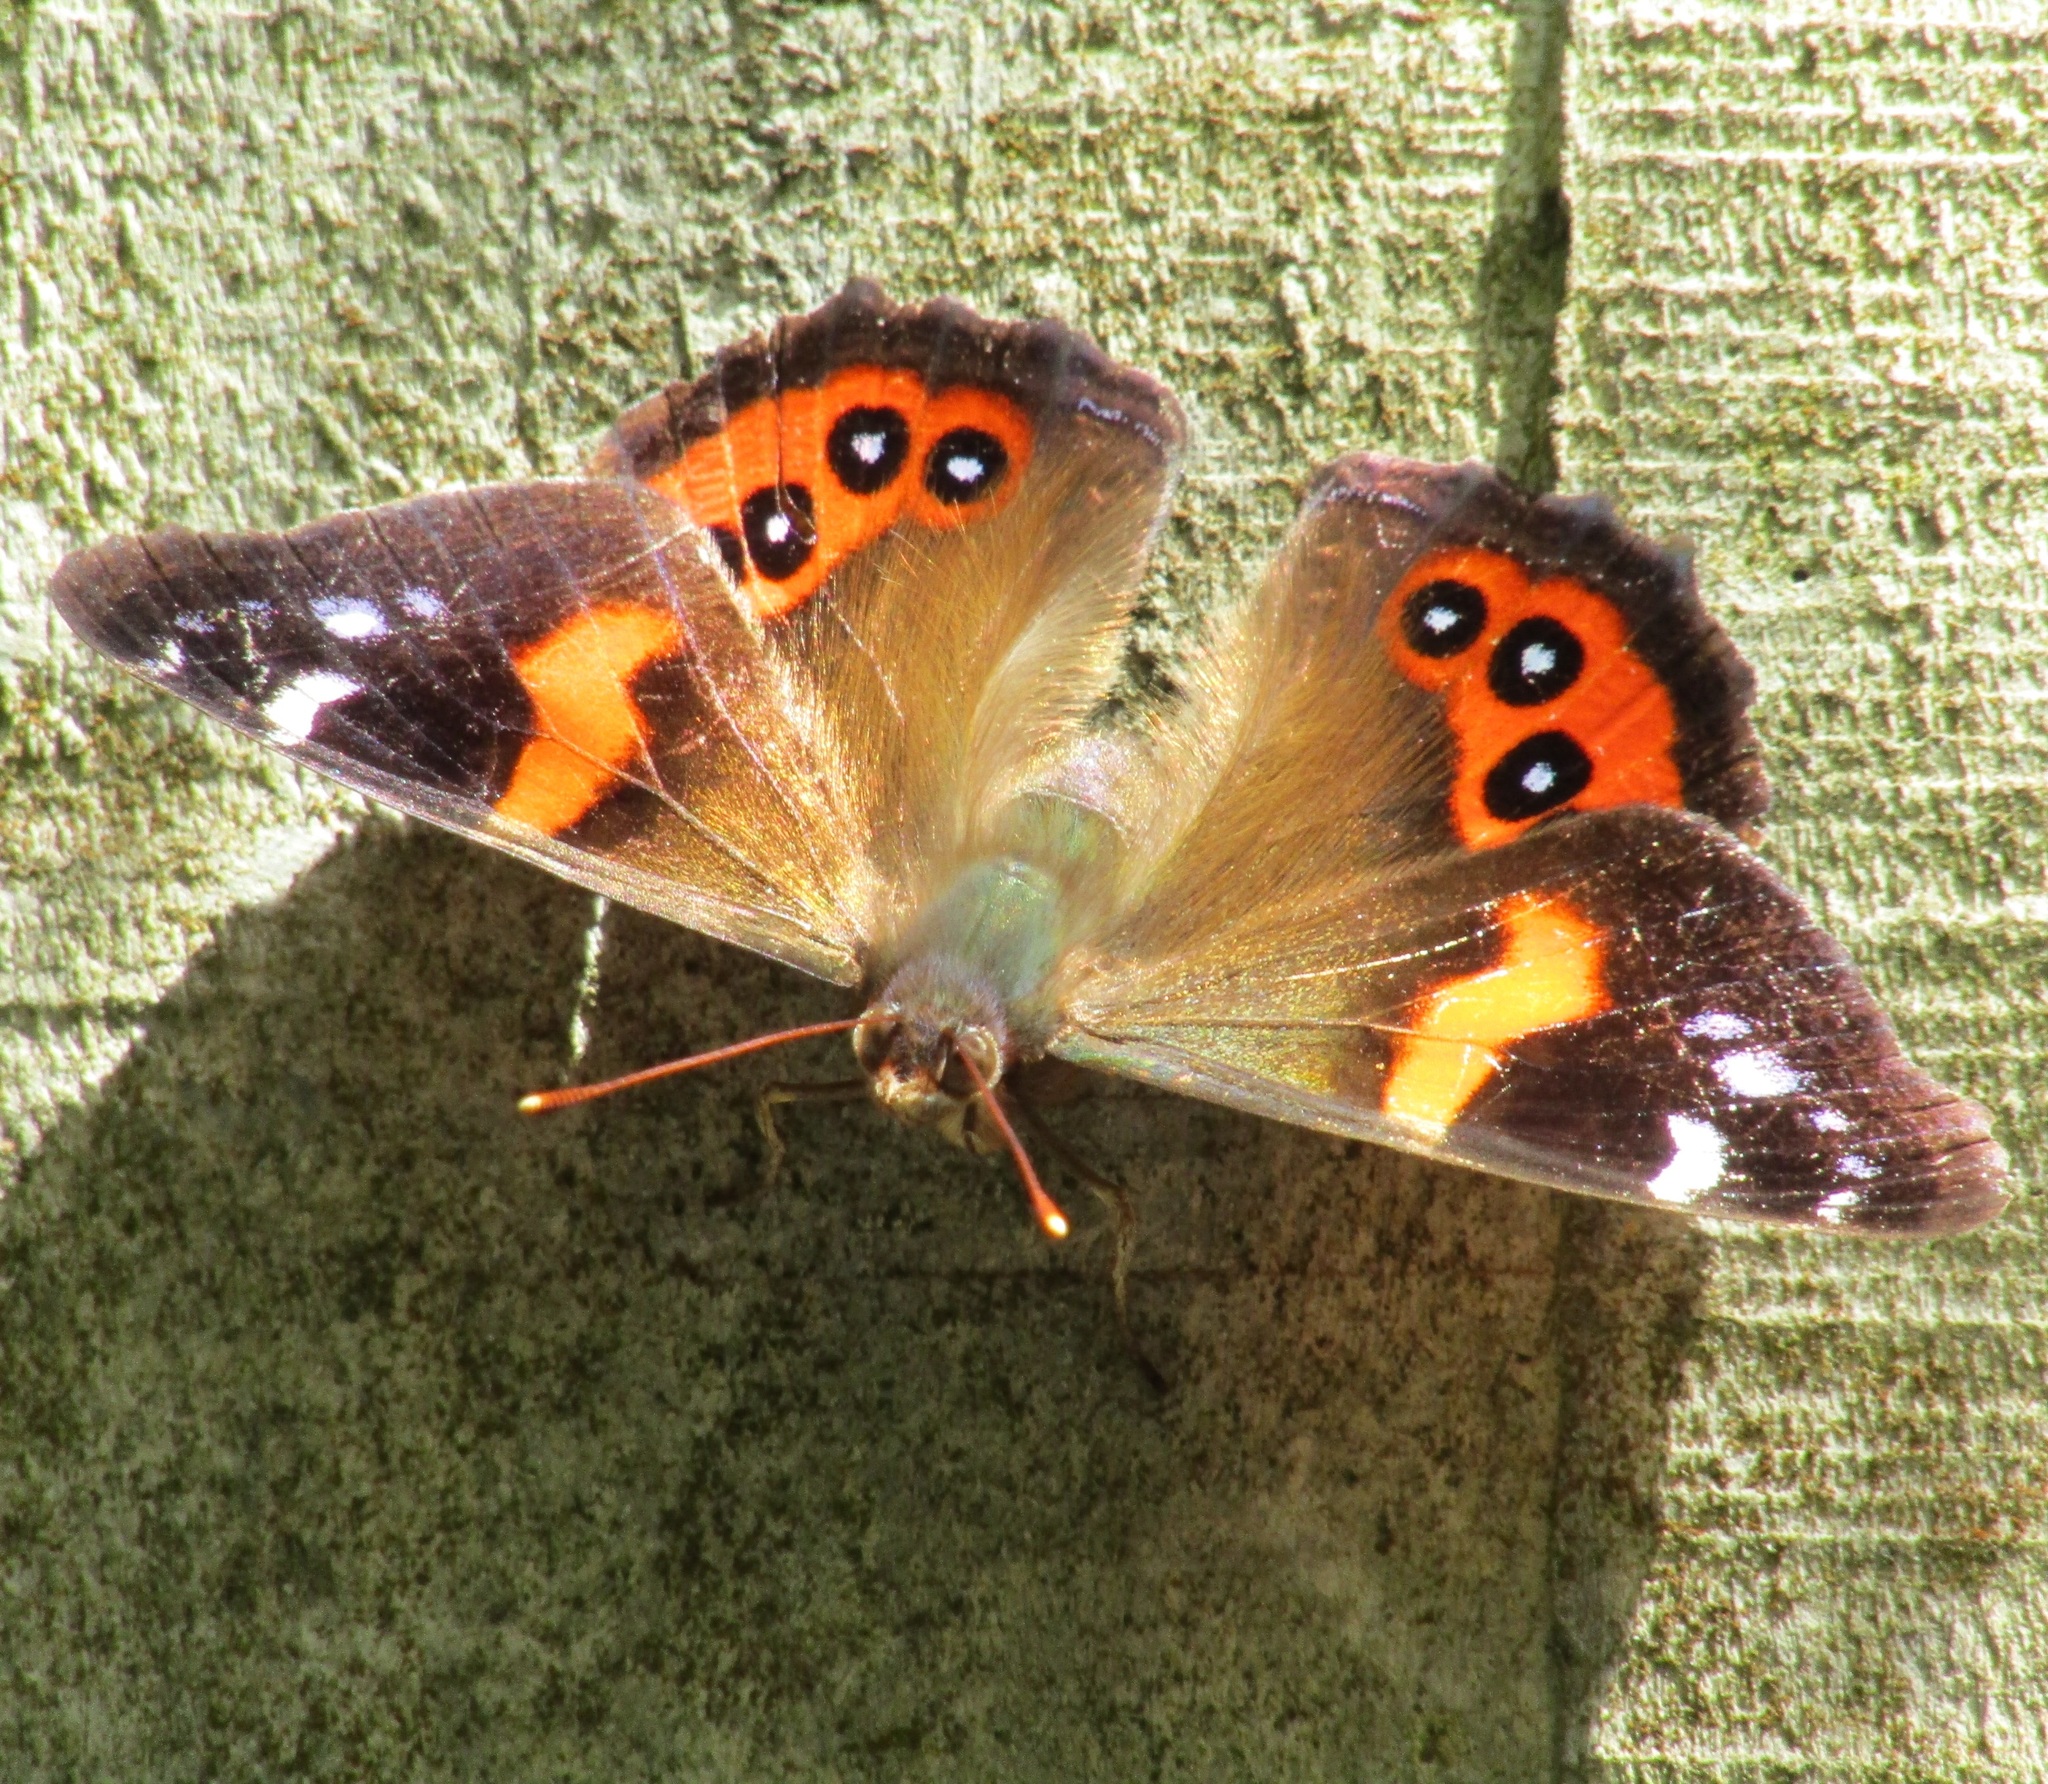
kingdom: Animalia
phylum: Arthropoda
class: Insecta
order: Lepidoptera
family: Nymphalidae
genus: Vanessa
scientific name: Vanessa gonerilla
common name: New zealand red admiral
